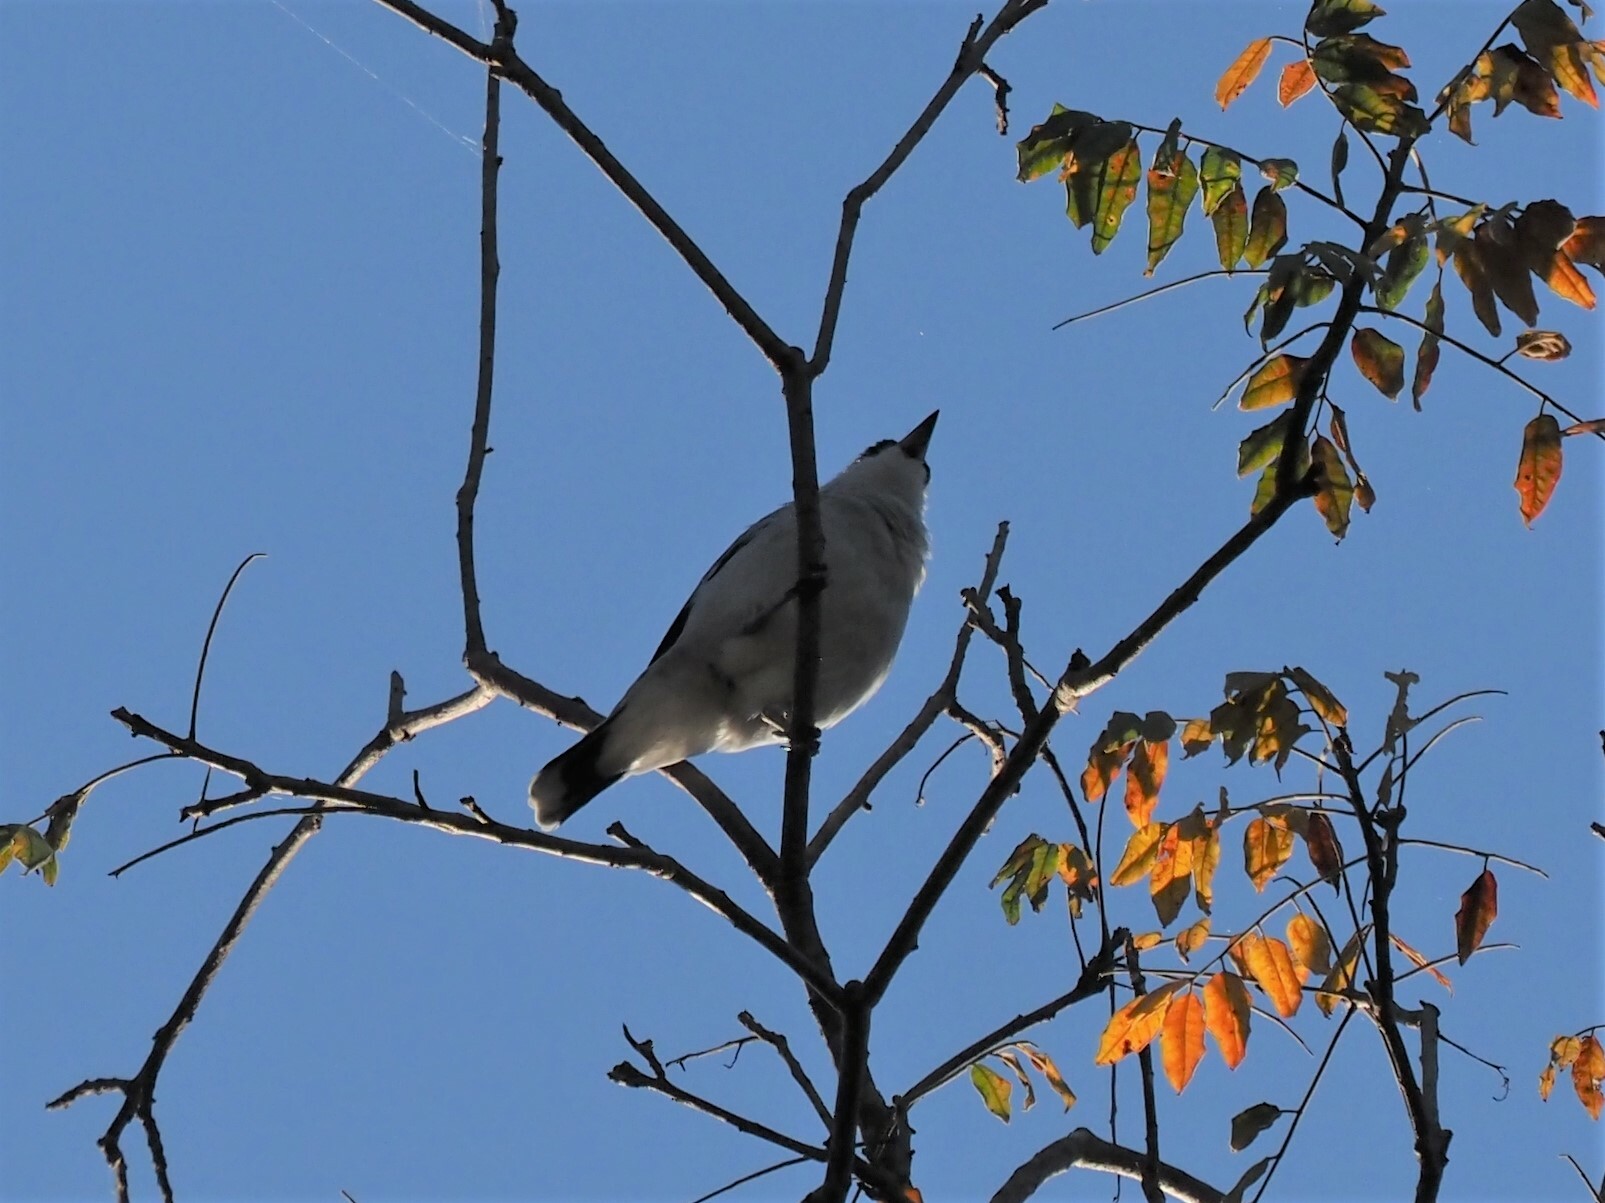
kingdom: Animalia
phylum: Chordata
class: Aves
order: Passeriformes
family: Cotingidae
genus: Tityra
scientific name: Tityra semifasciata
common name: Masked tityra
